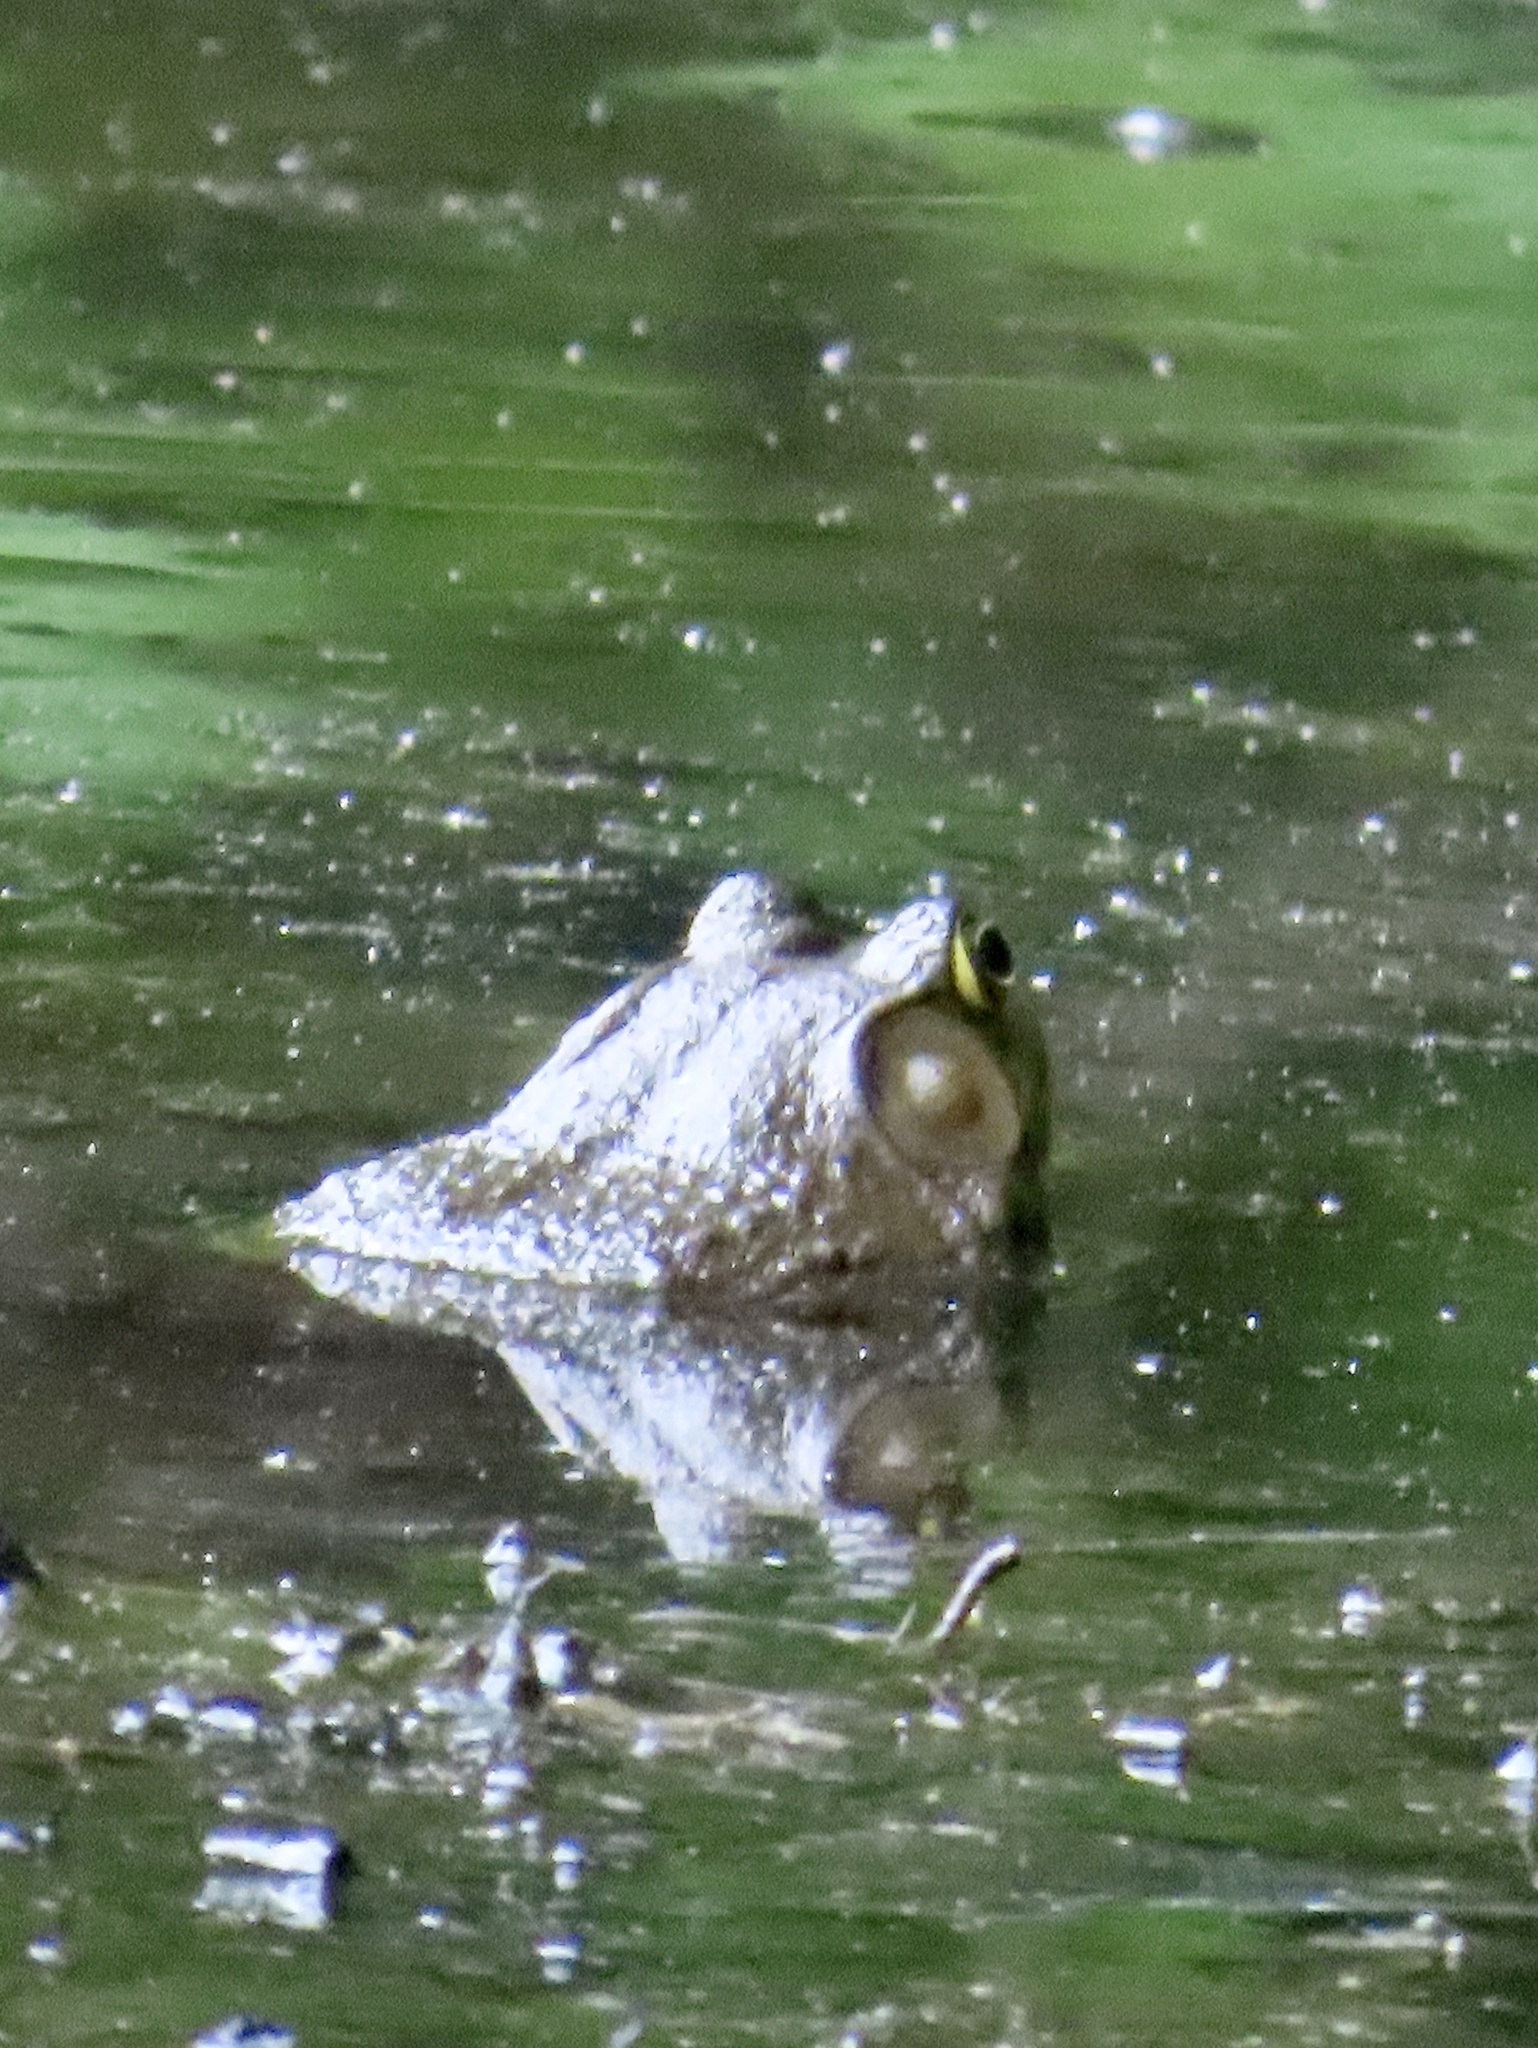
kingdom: Animalia
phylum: Chordata
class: Amphibia
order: Anura
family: Ranidae
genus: Lithobates
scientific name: Lithobates catesbeianus
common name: American bullfrog
